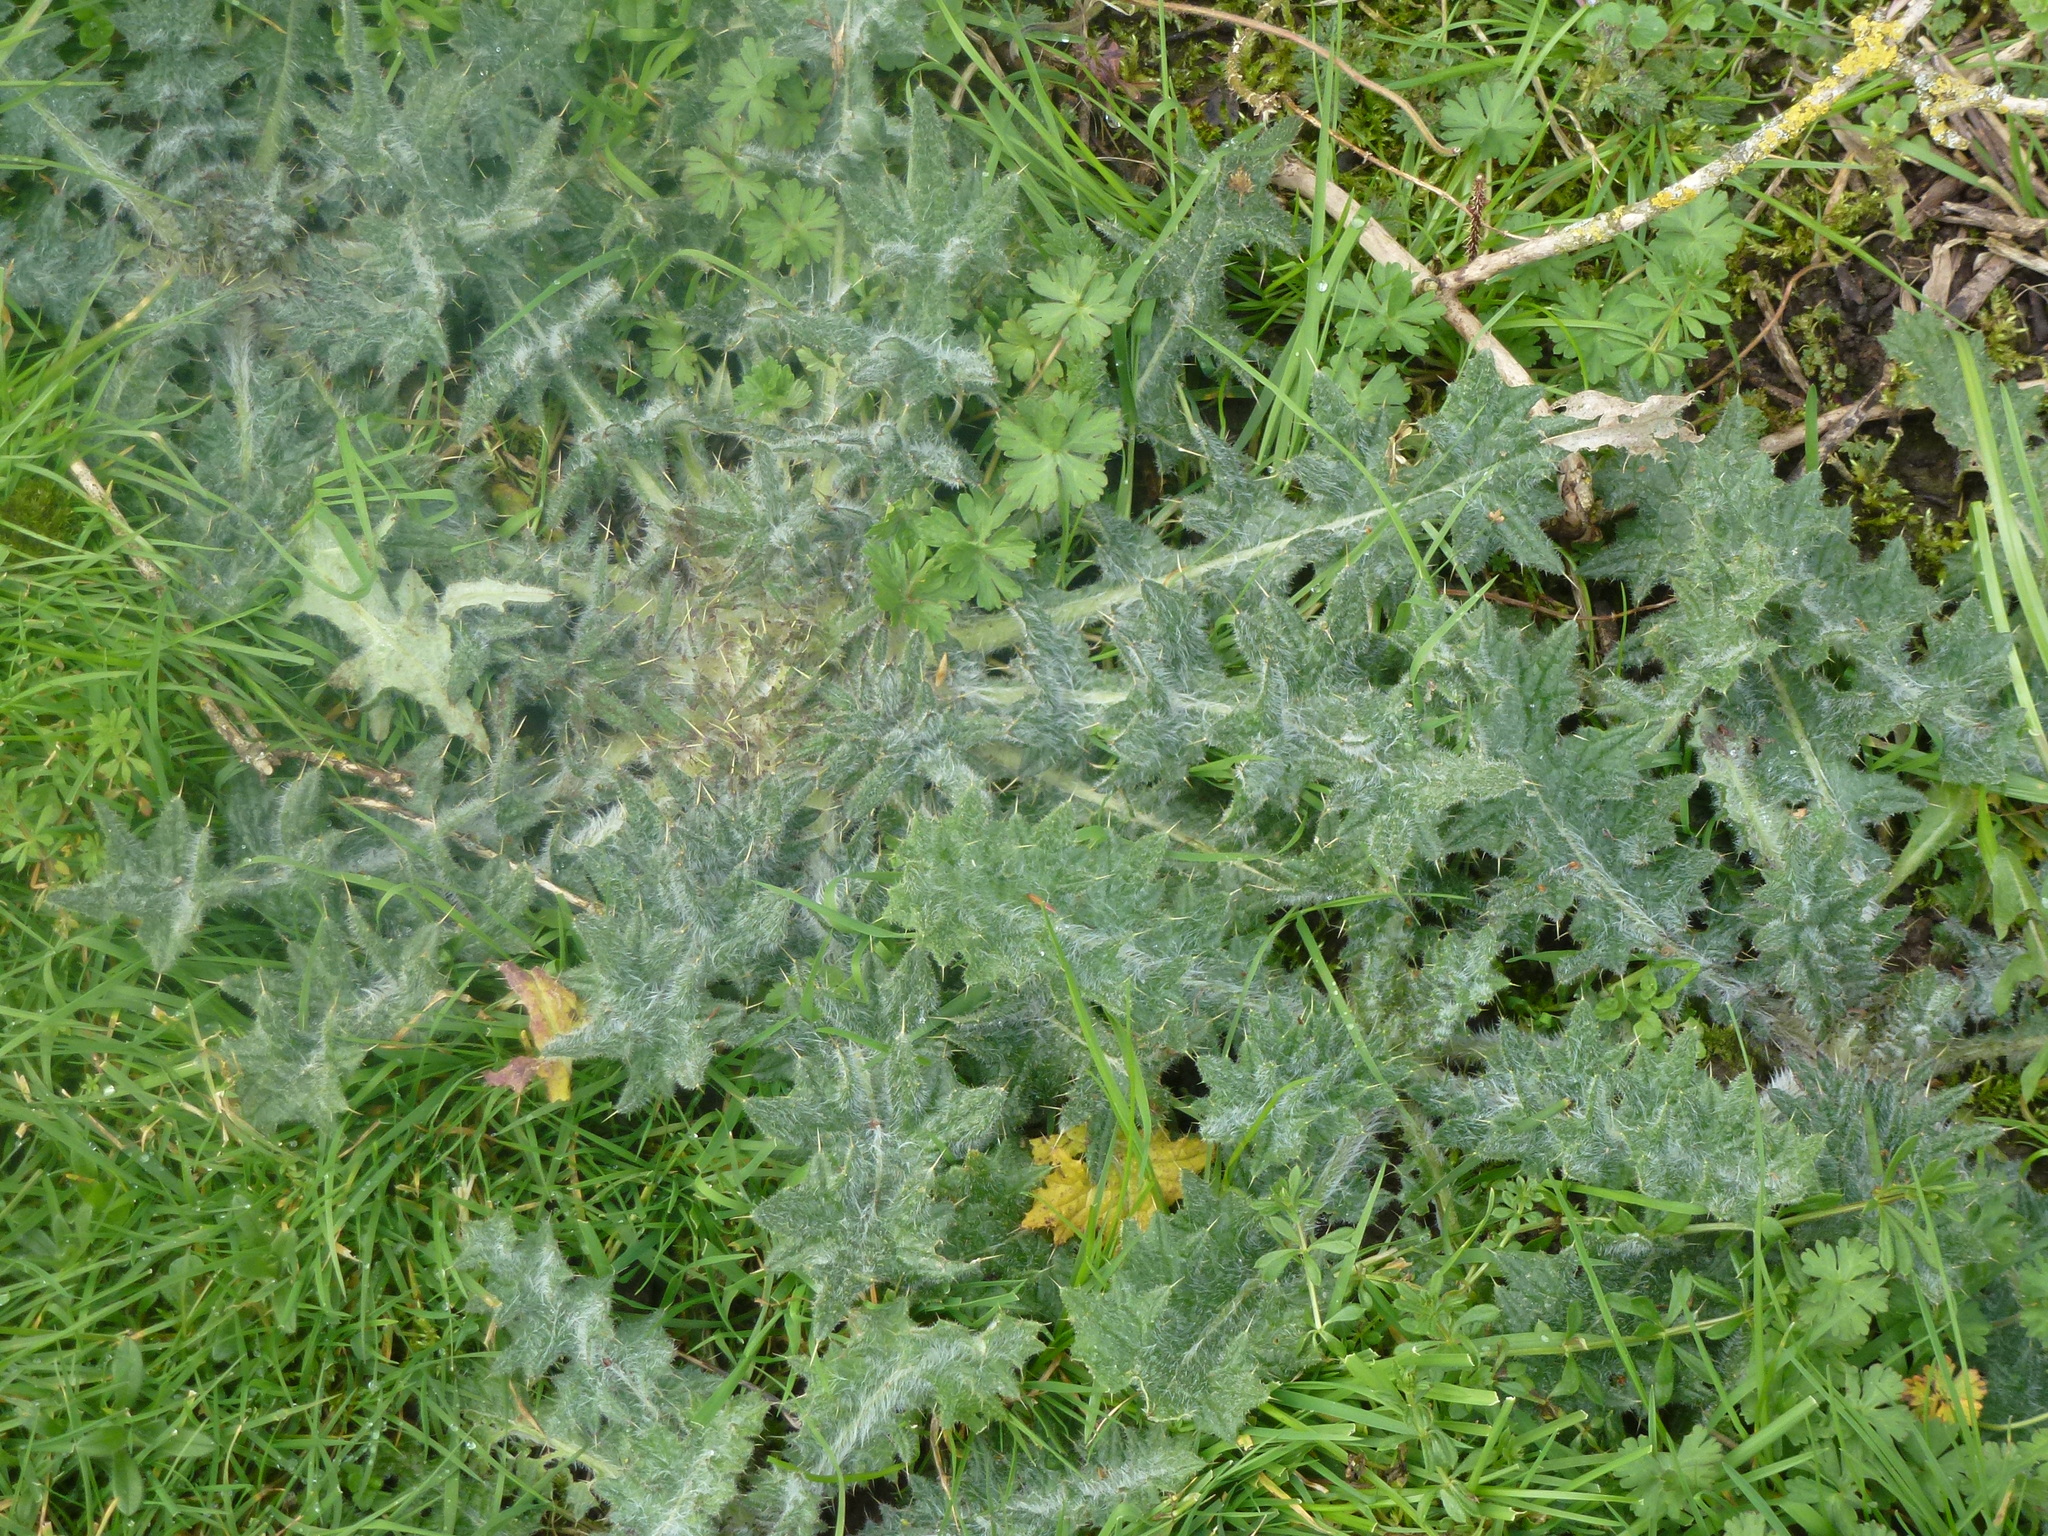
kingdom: Plantae
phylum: Tracheophyta
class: Magnoliopsida
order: Asterales
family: Asteraceae
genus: Cirsium
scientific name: Cirsium vulgare
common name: Bull thistle
